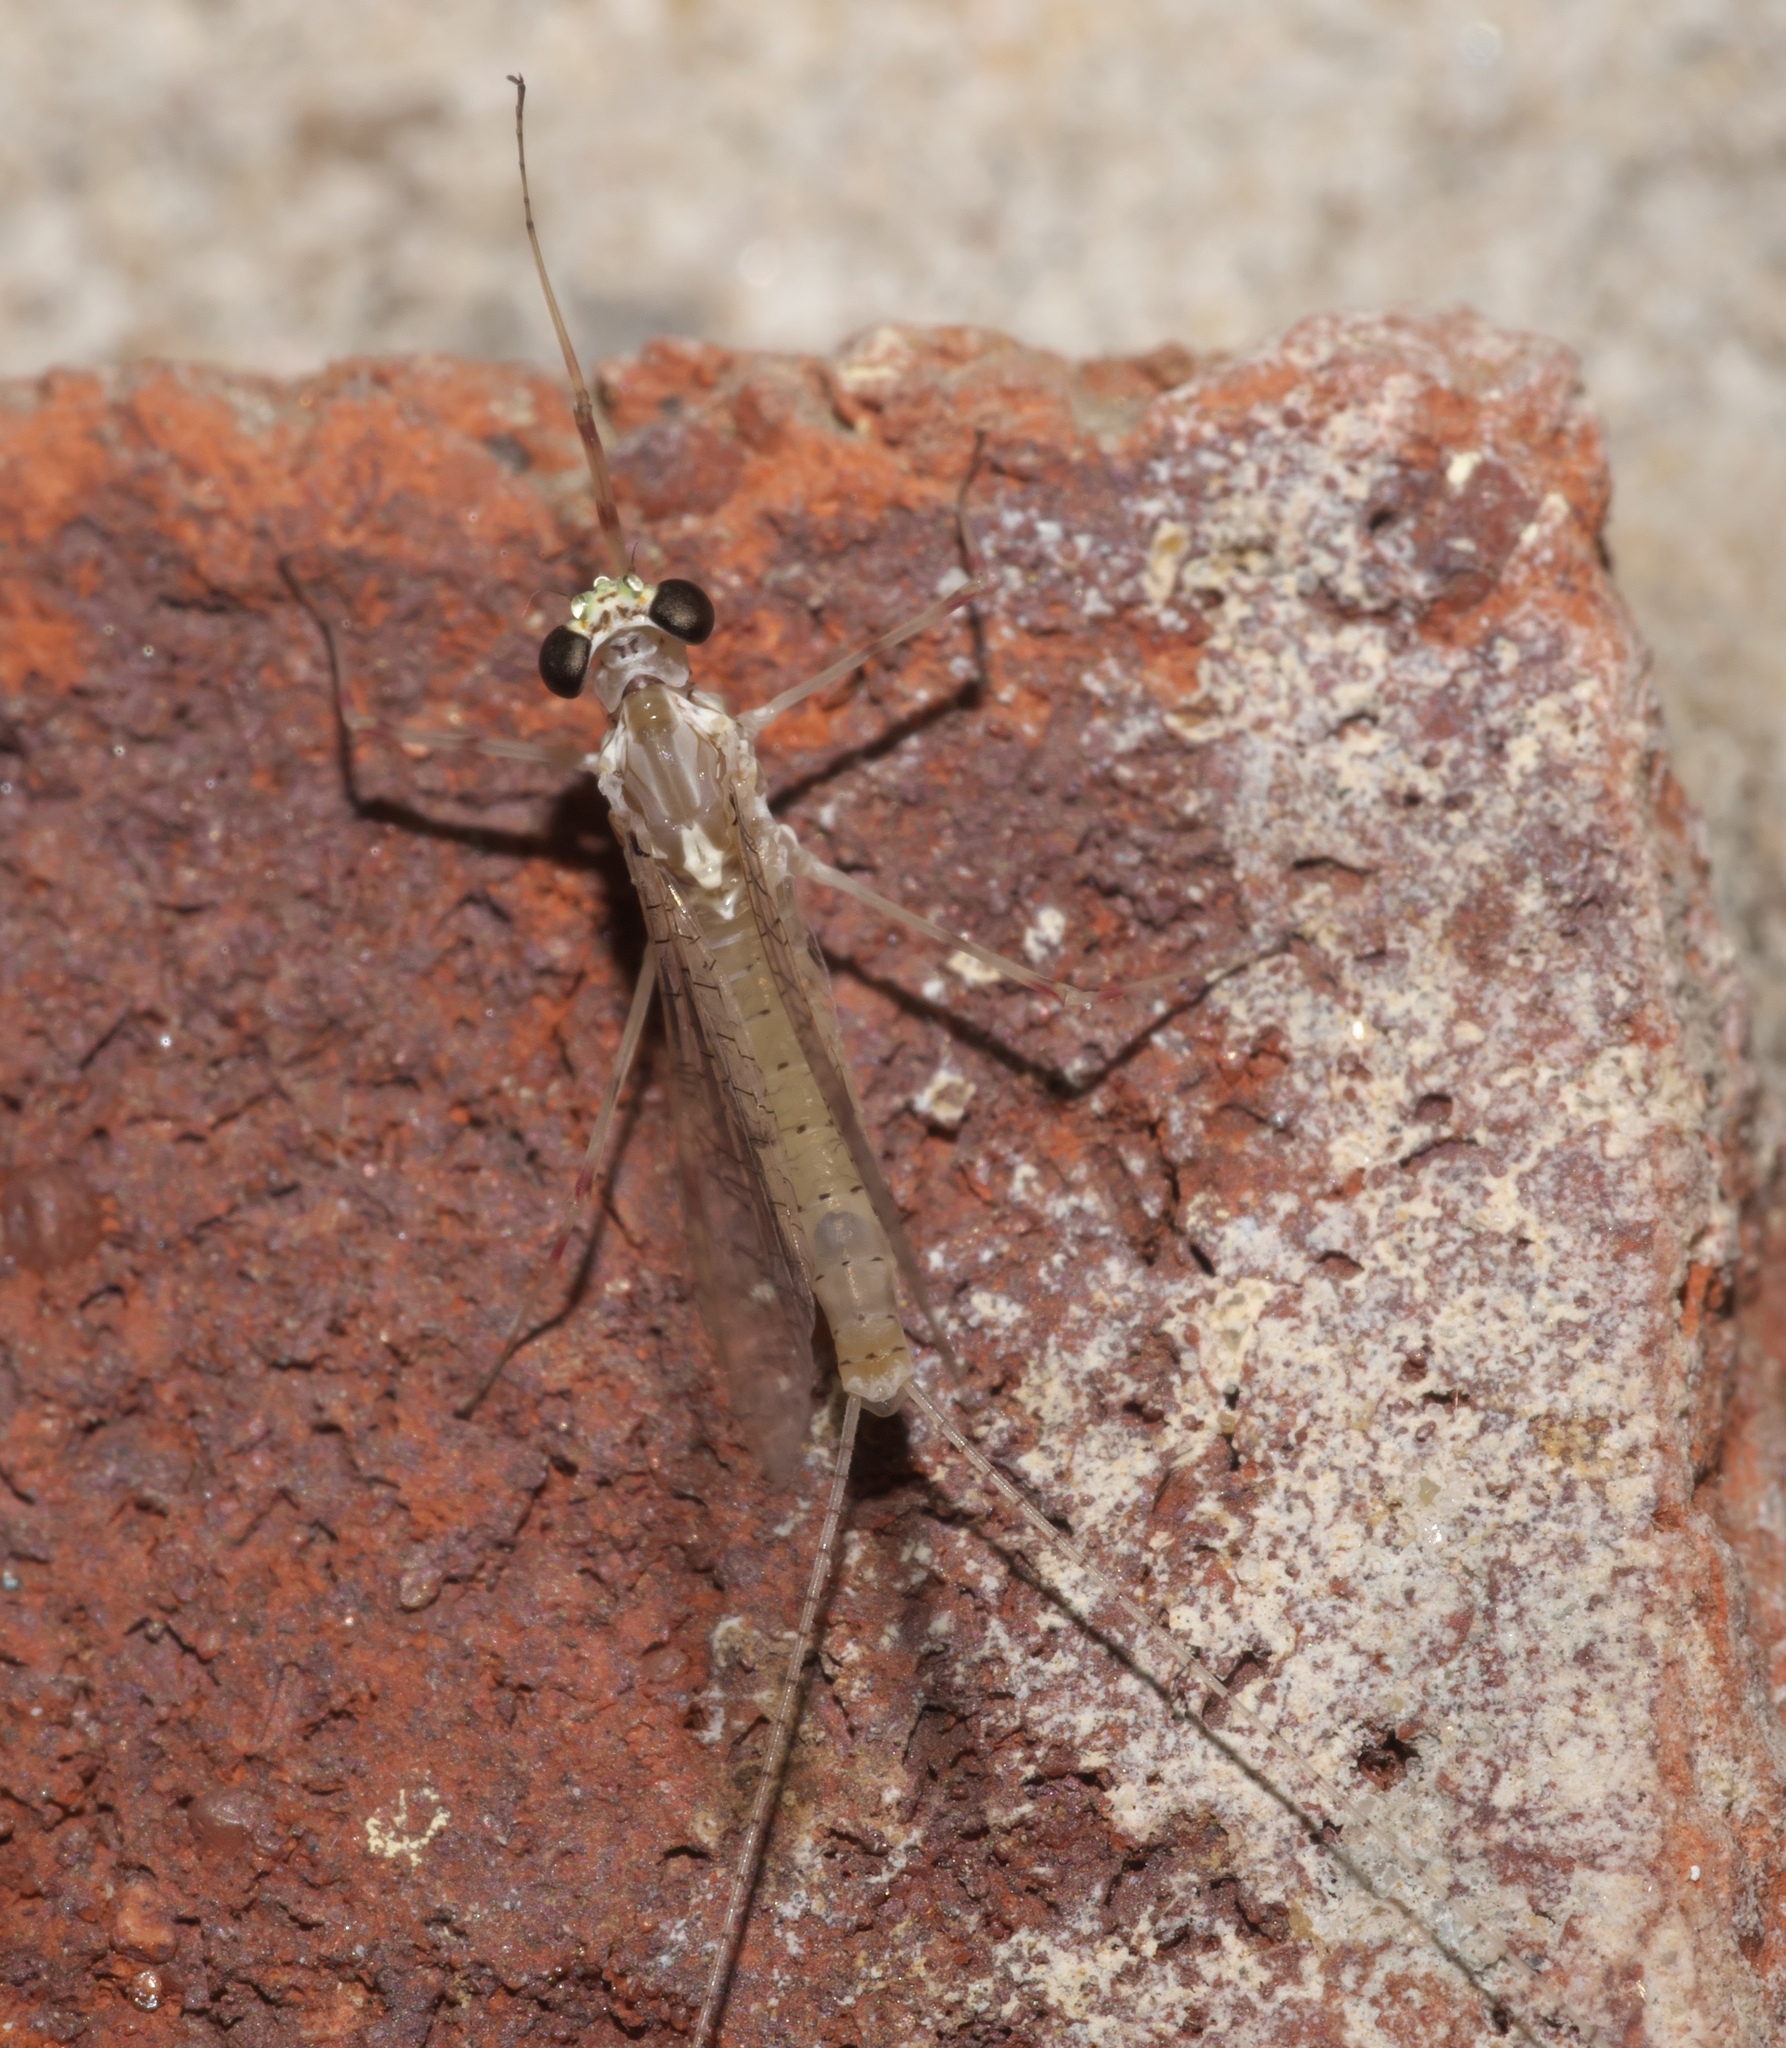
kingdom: Animalia
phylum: Arthropoda
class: Insecta
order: Ephemeroptera
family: Heptageniidae
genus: Stenonema
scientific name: Stenonema femoratum
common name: Dark cahill
